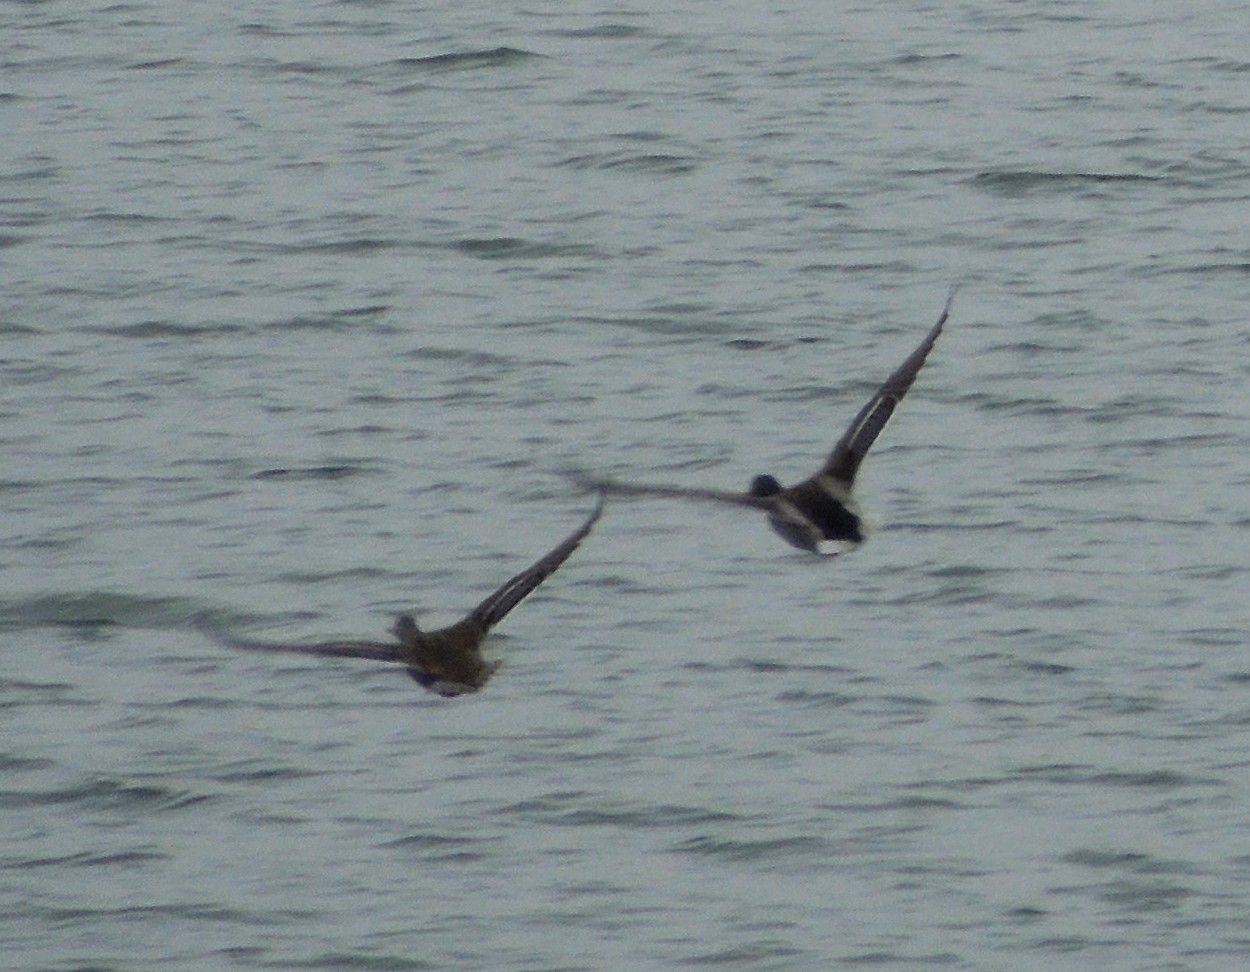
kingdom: Animalia
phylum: Chordata
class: Aves
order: Anseriformes
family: Anatidae
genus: Anas
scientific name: Anas platyrhynchos
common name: Mallard
